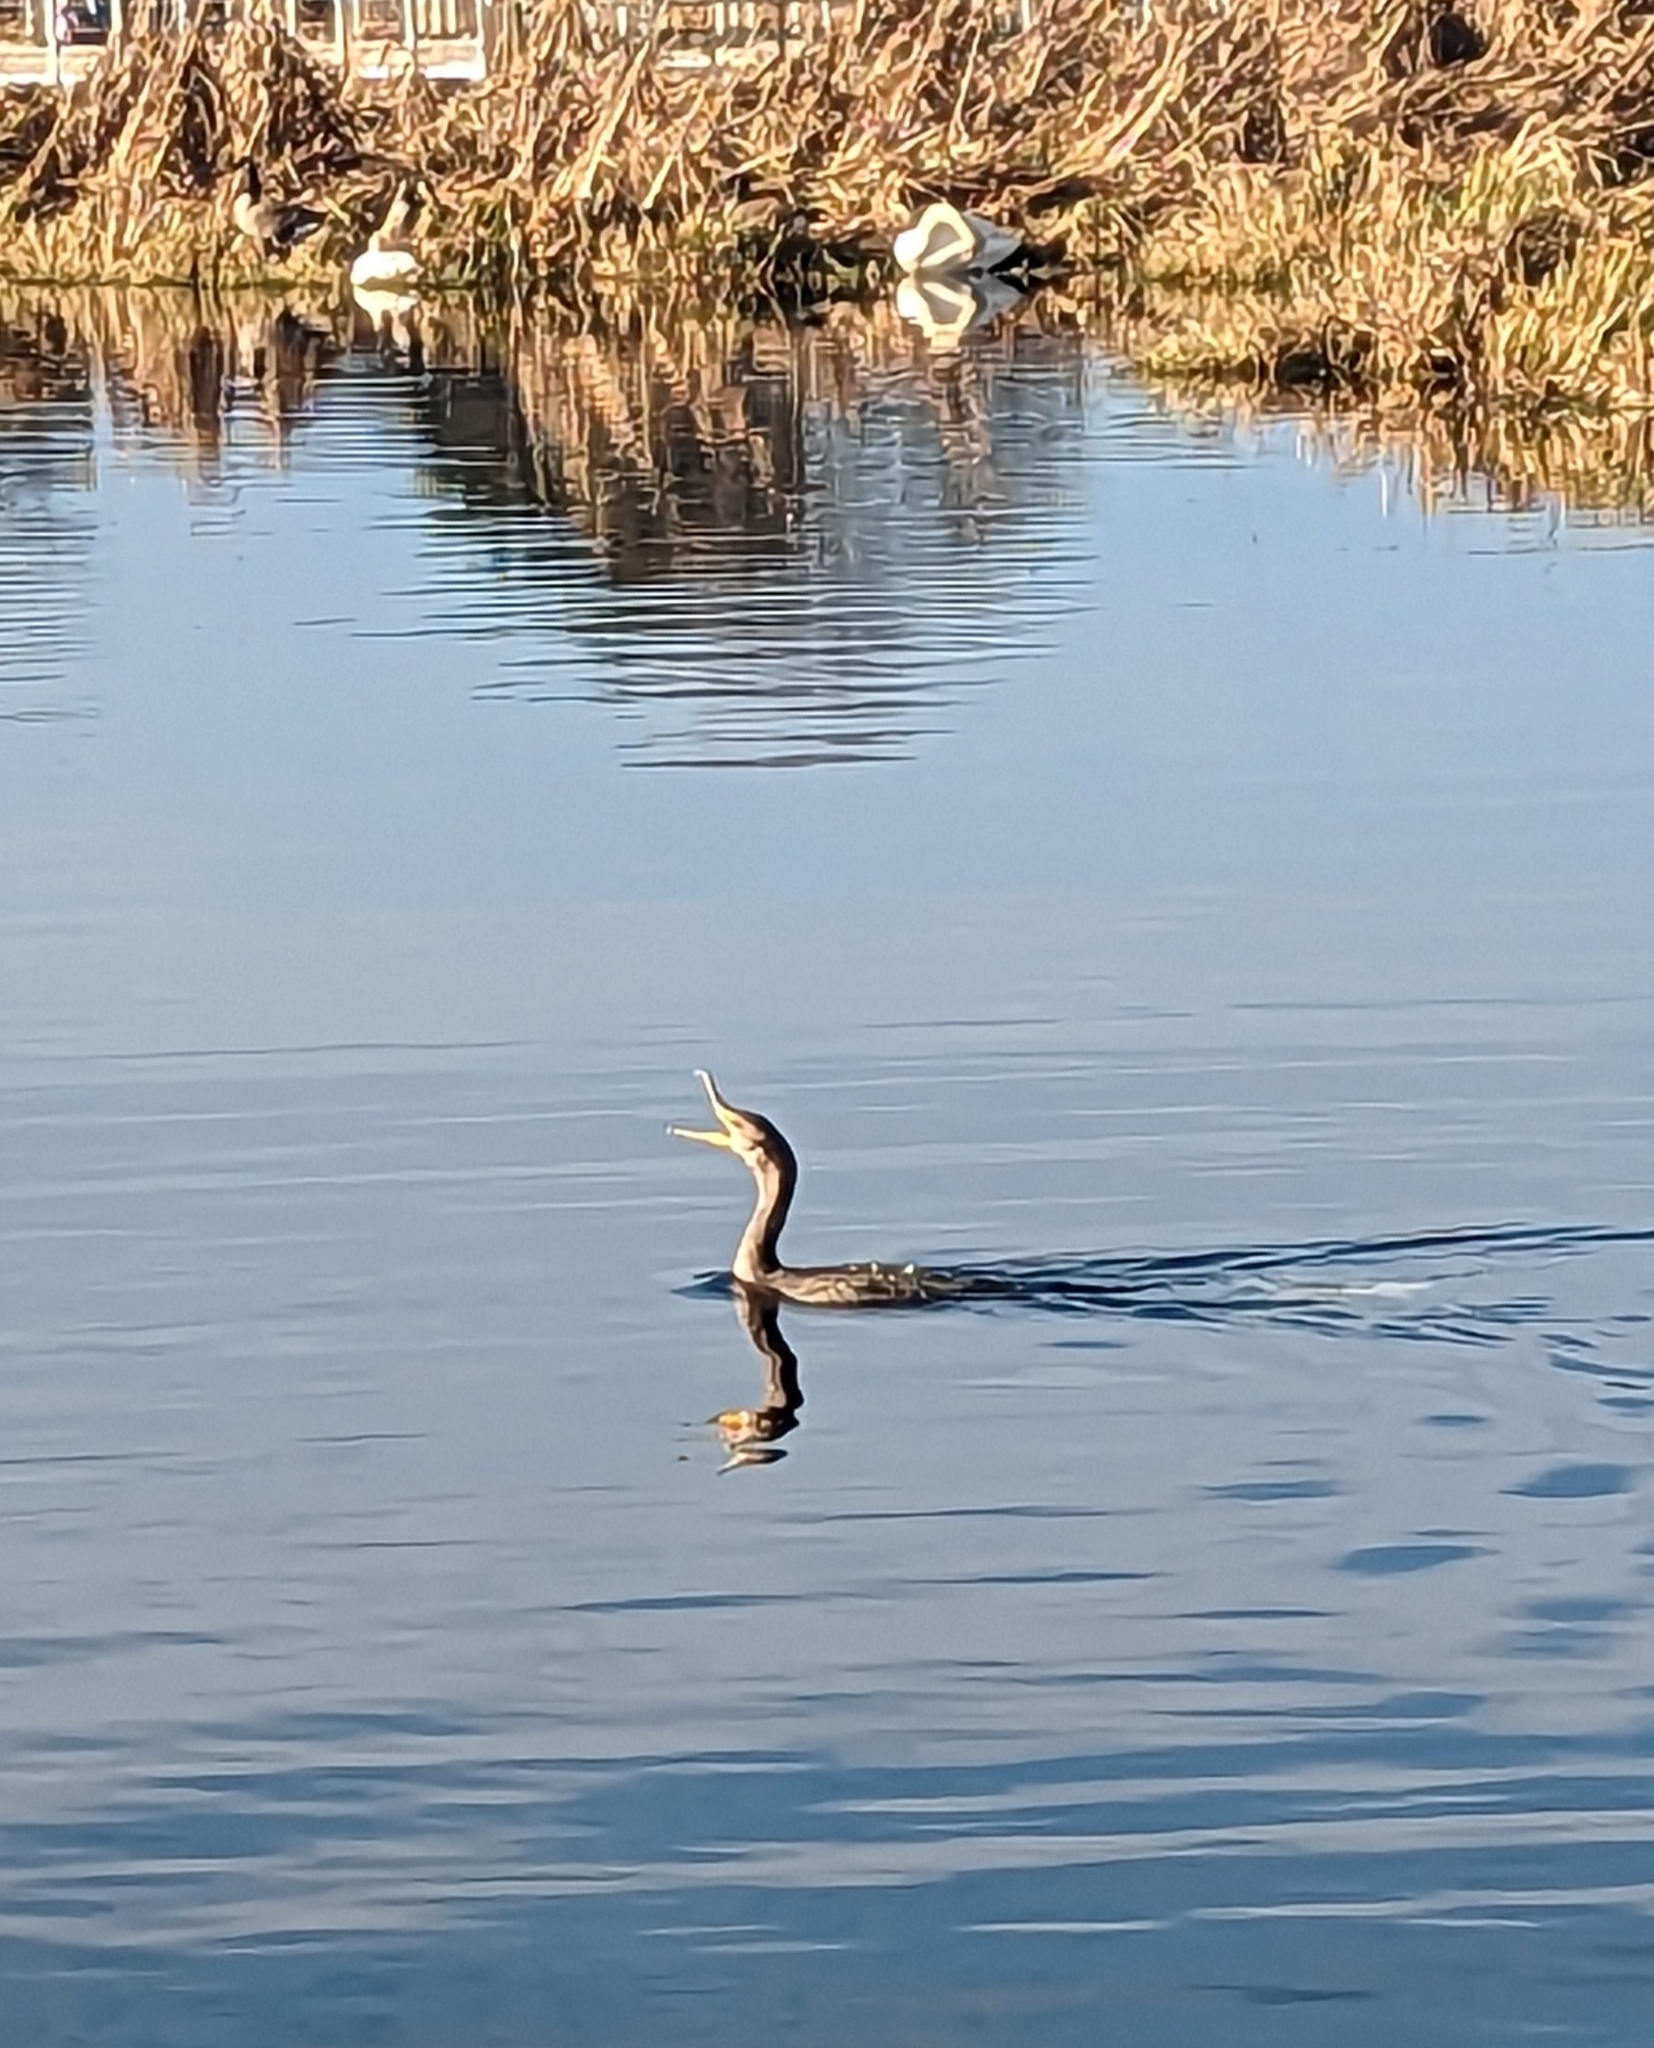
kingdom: Animalia
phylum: Chordata
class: Aves
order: Suliformes
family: Phalacrocoracidae
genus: Phalacrocorax
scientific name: Phalacrocorax auritus
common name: Double-crested cormorant
